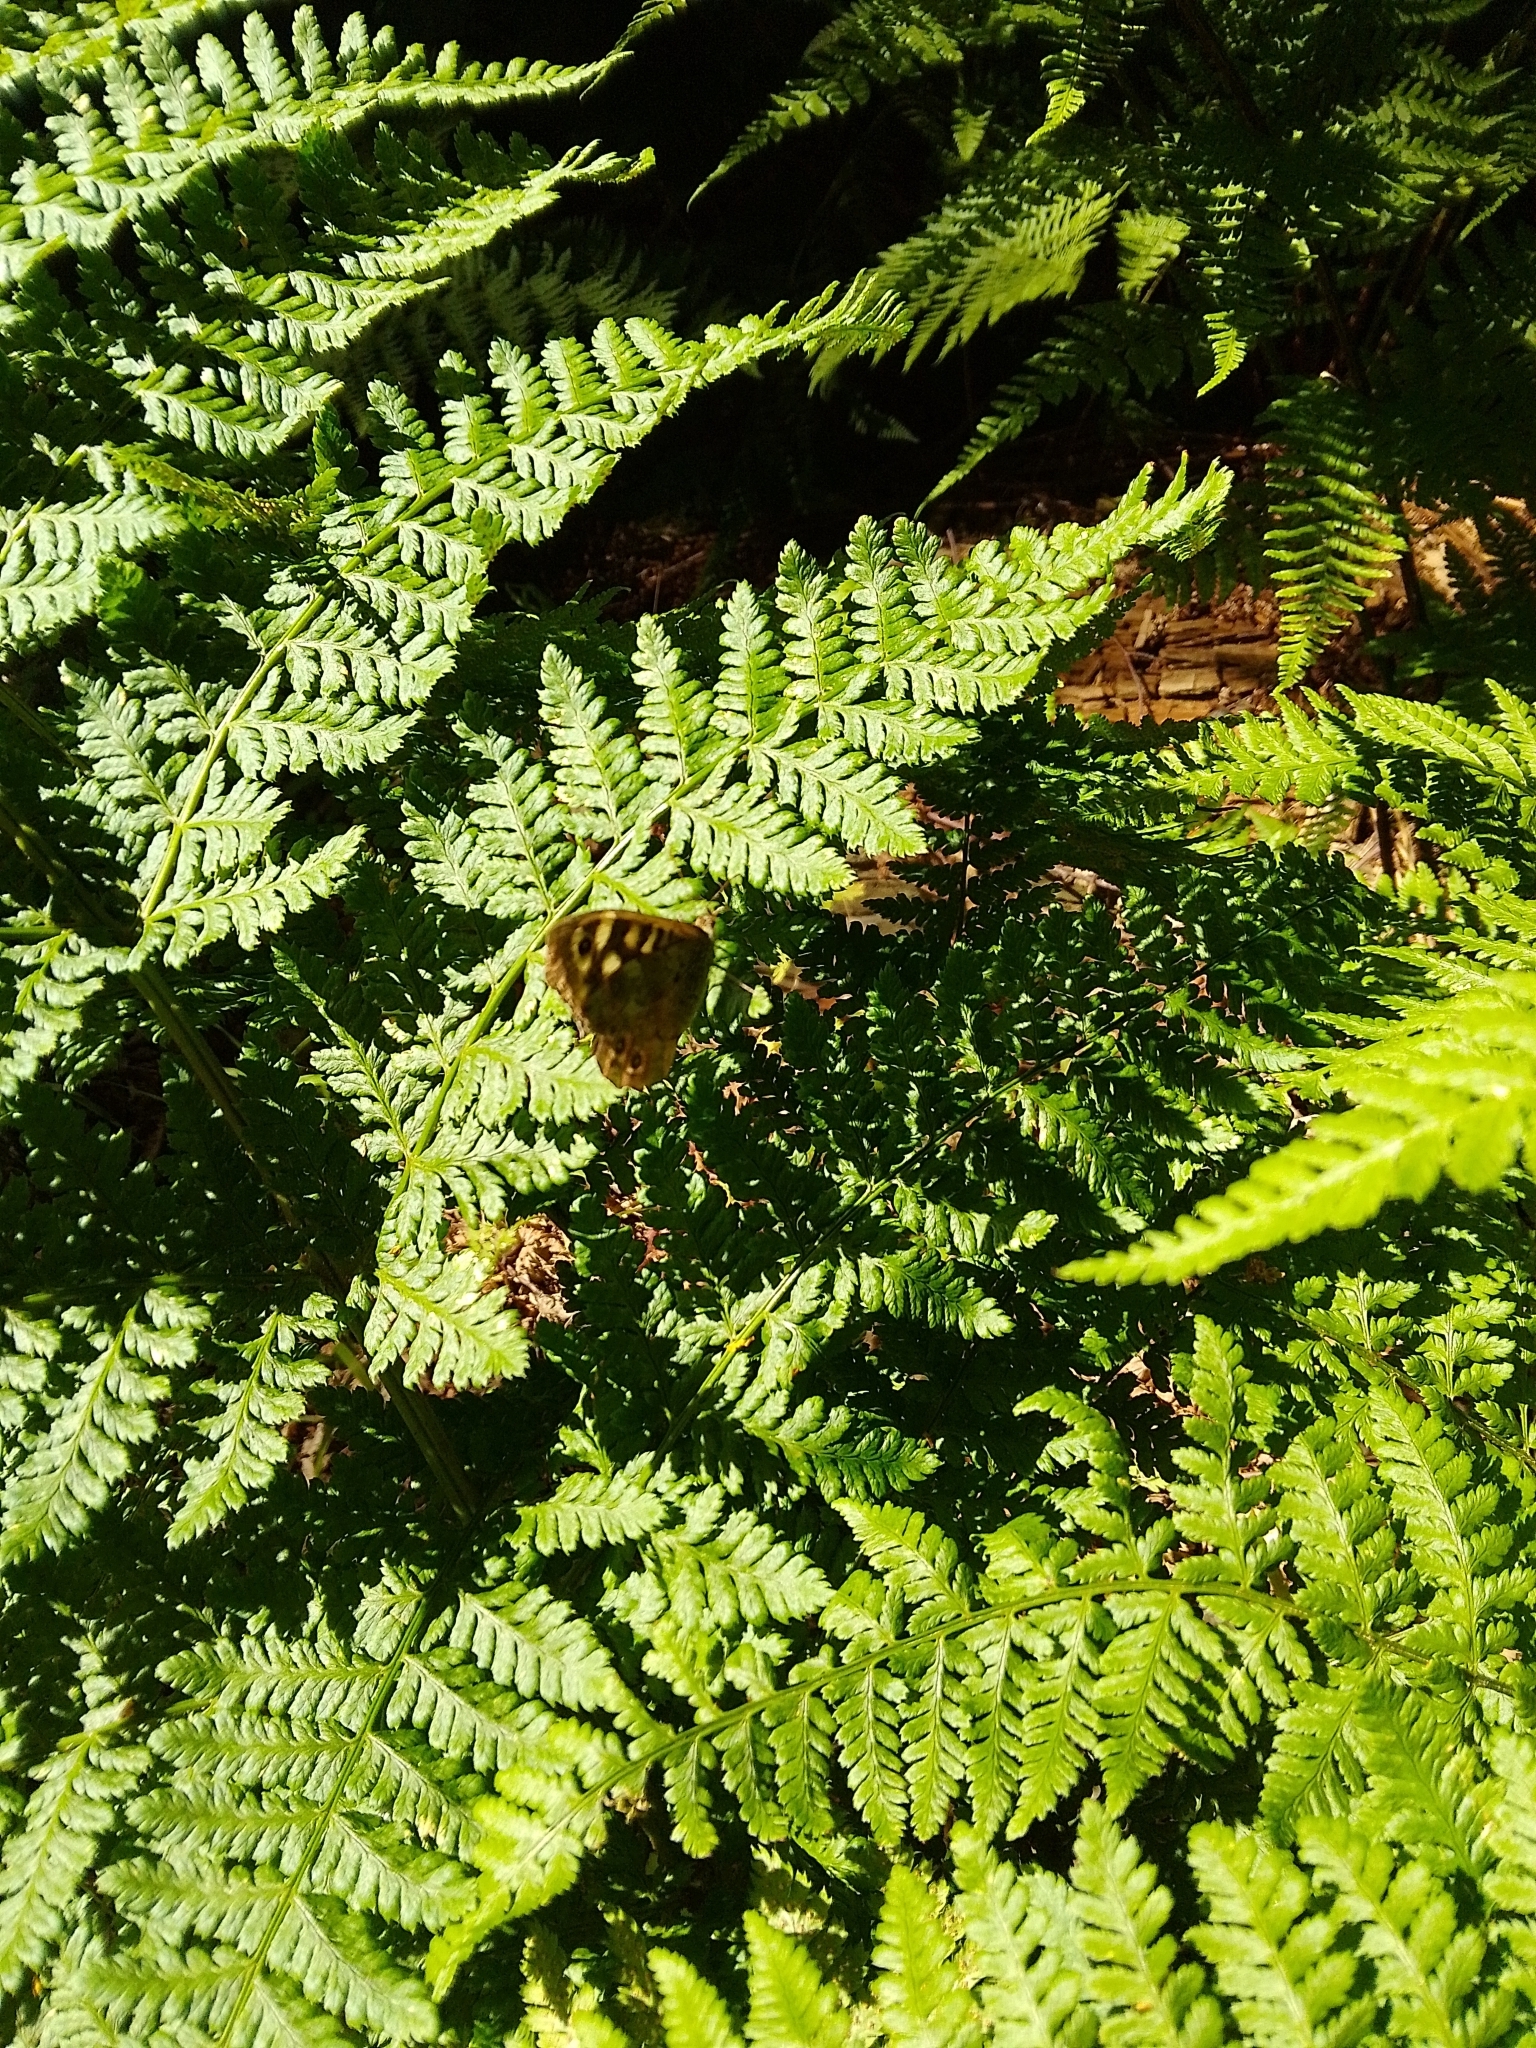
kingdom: Animalia
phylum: Arthropoda
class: Insecta
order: Lepidoptera
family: Nymphalidae
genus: Pararge
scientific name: Pararge aegeria
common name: Speckled wood
